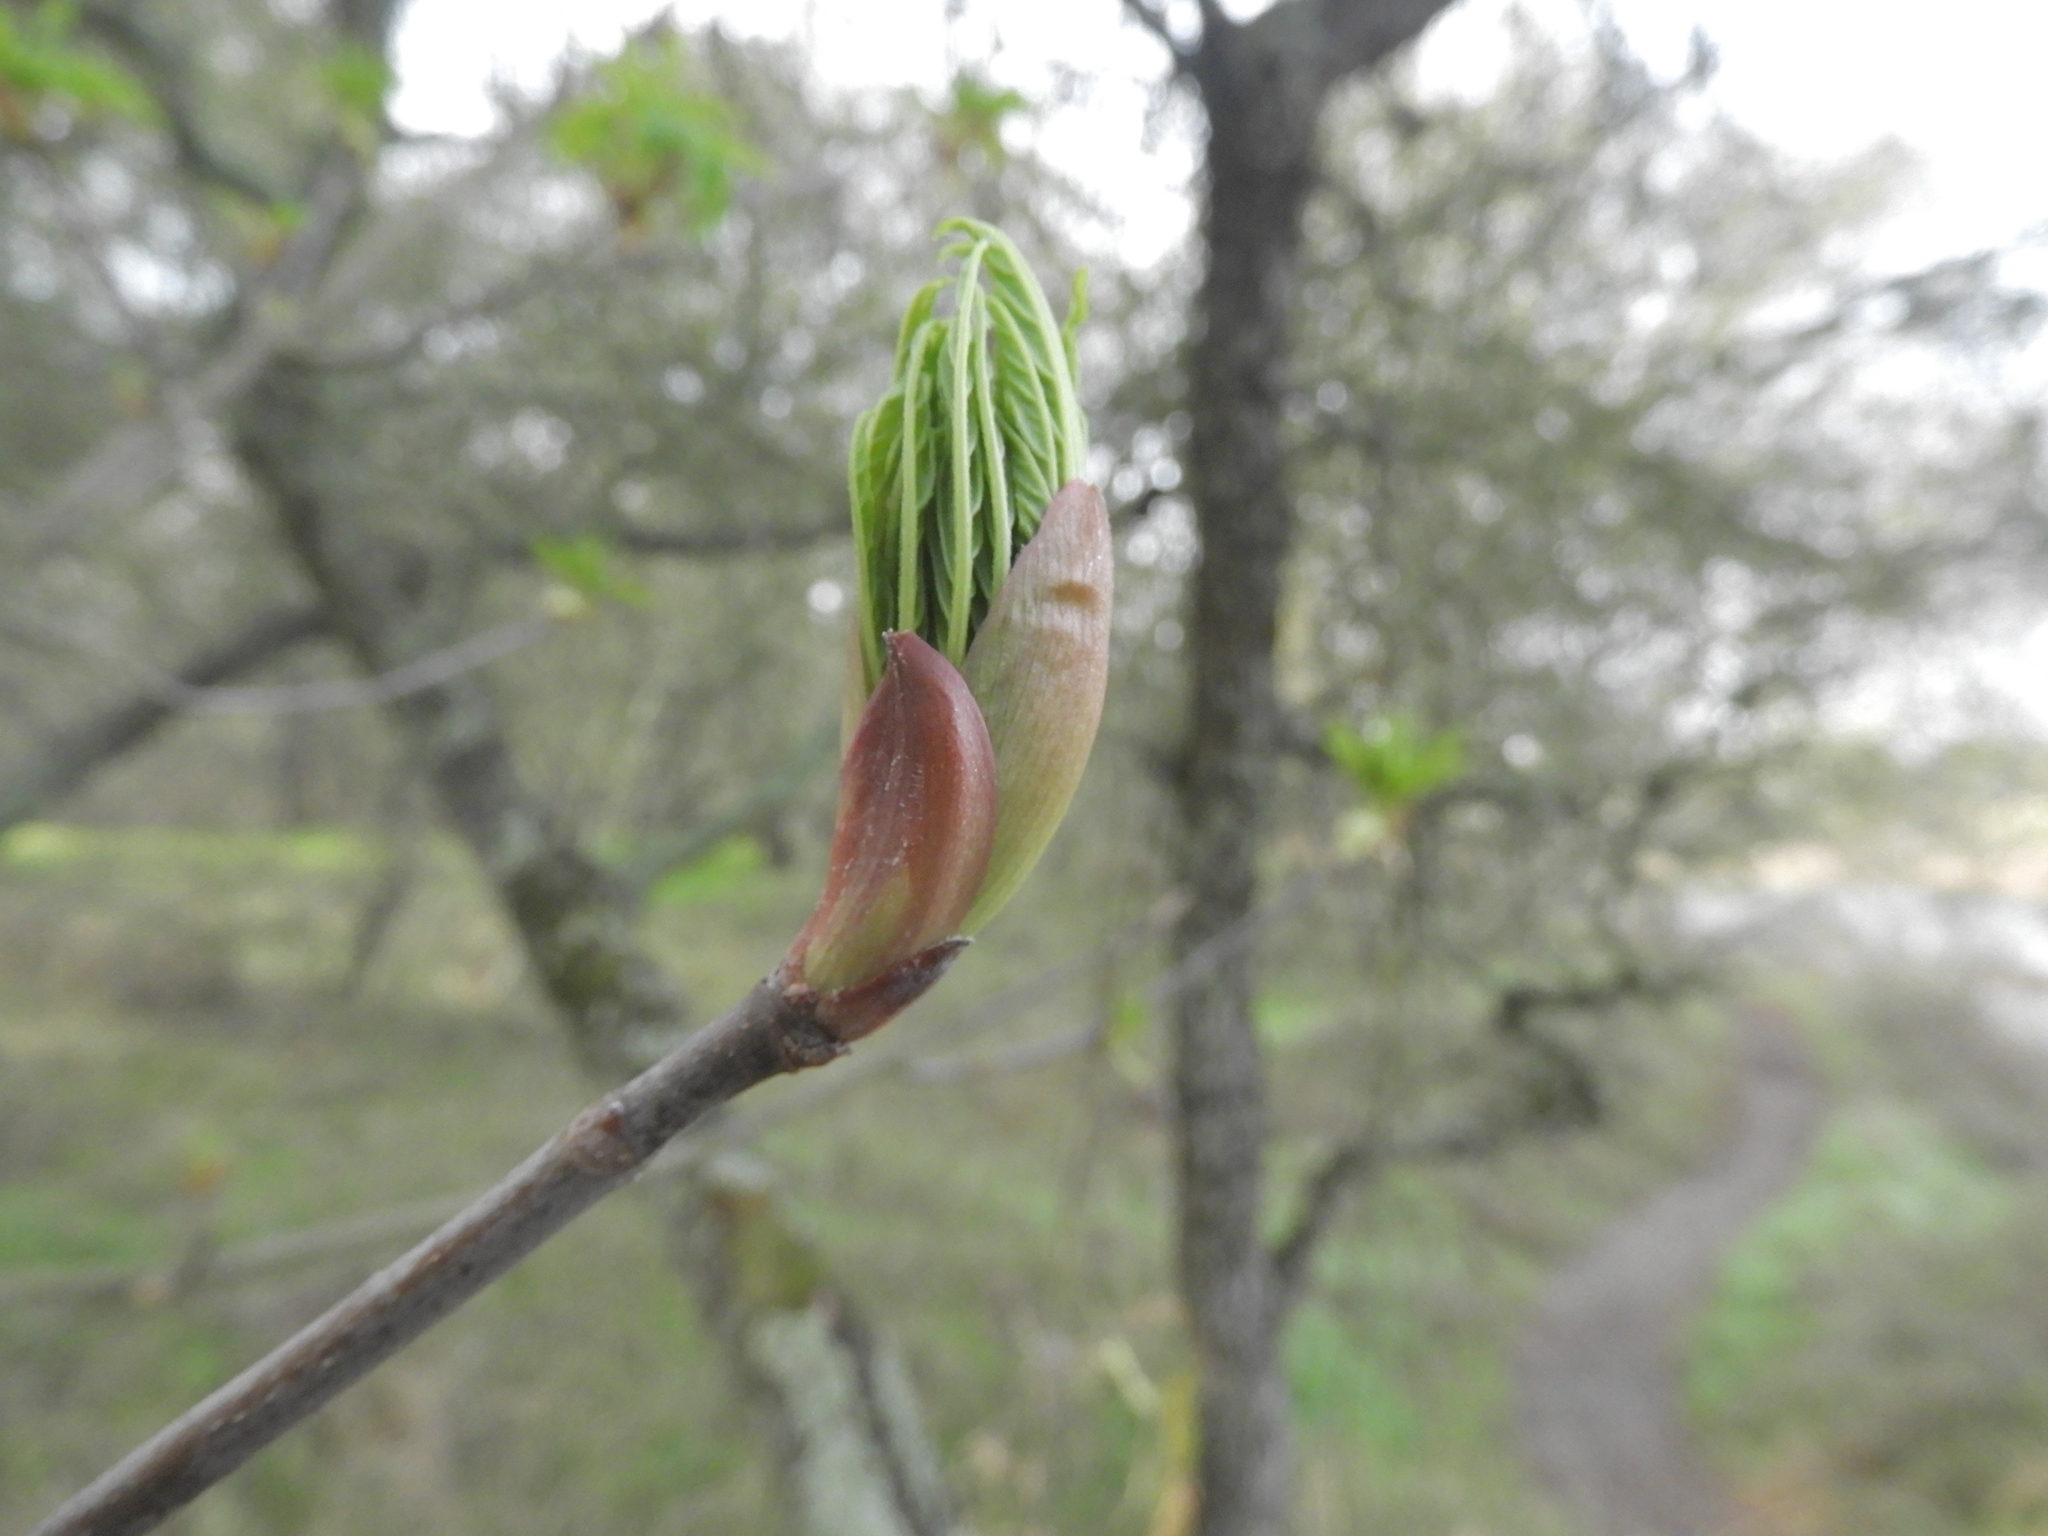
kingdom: Plantae
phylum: Tracheophyta
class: Magnoliopsida
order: Sapindales
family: Sapindaceae
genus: Aesculus
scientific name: Aesculus californica
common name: California buckeye
